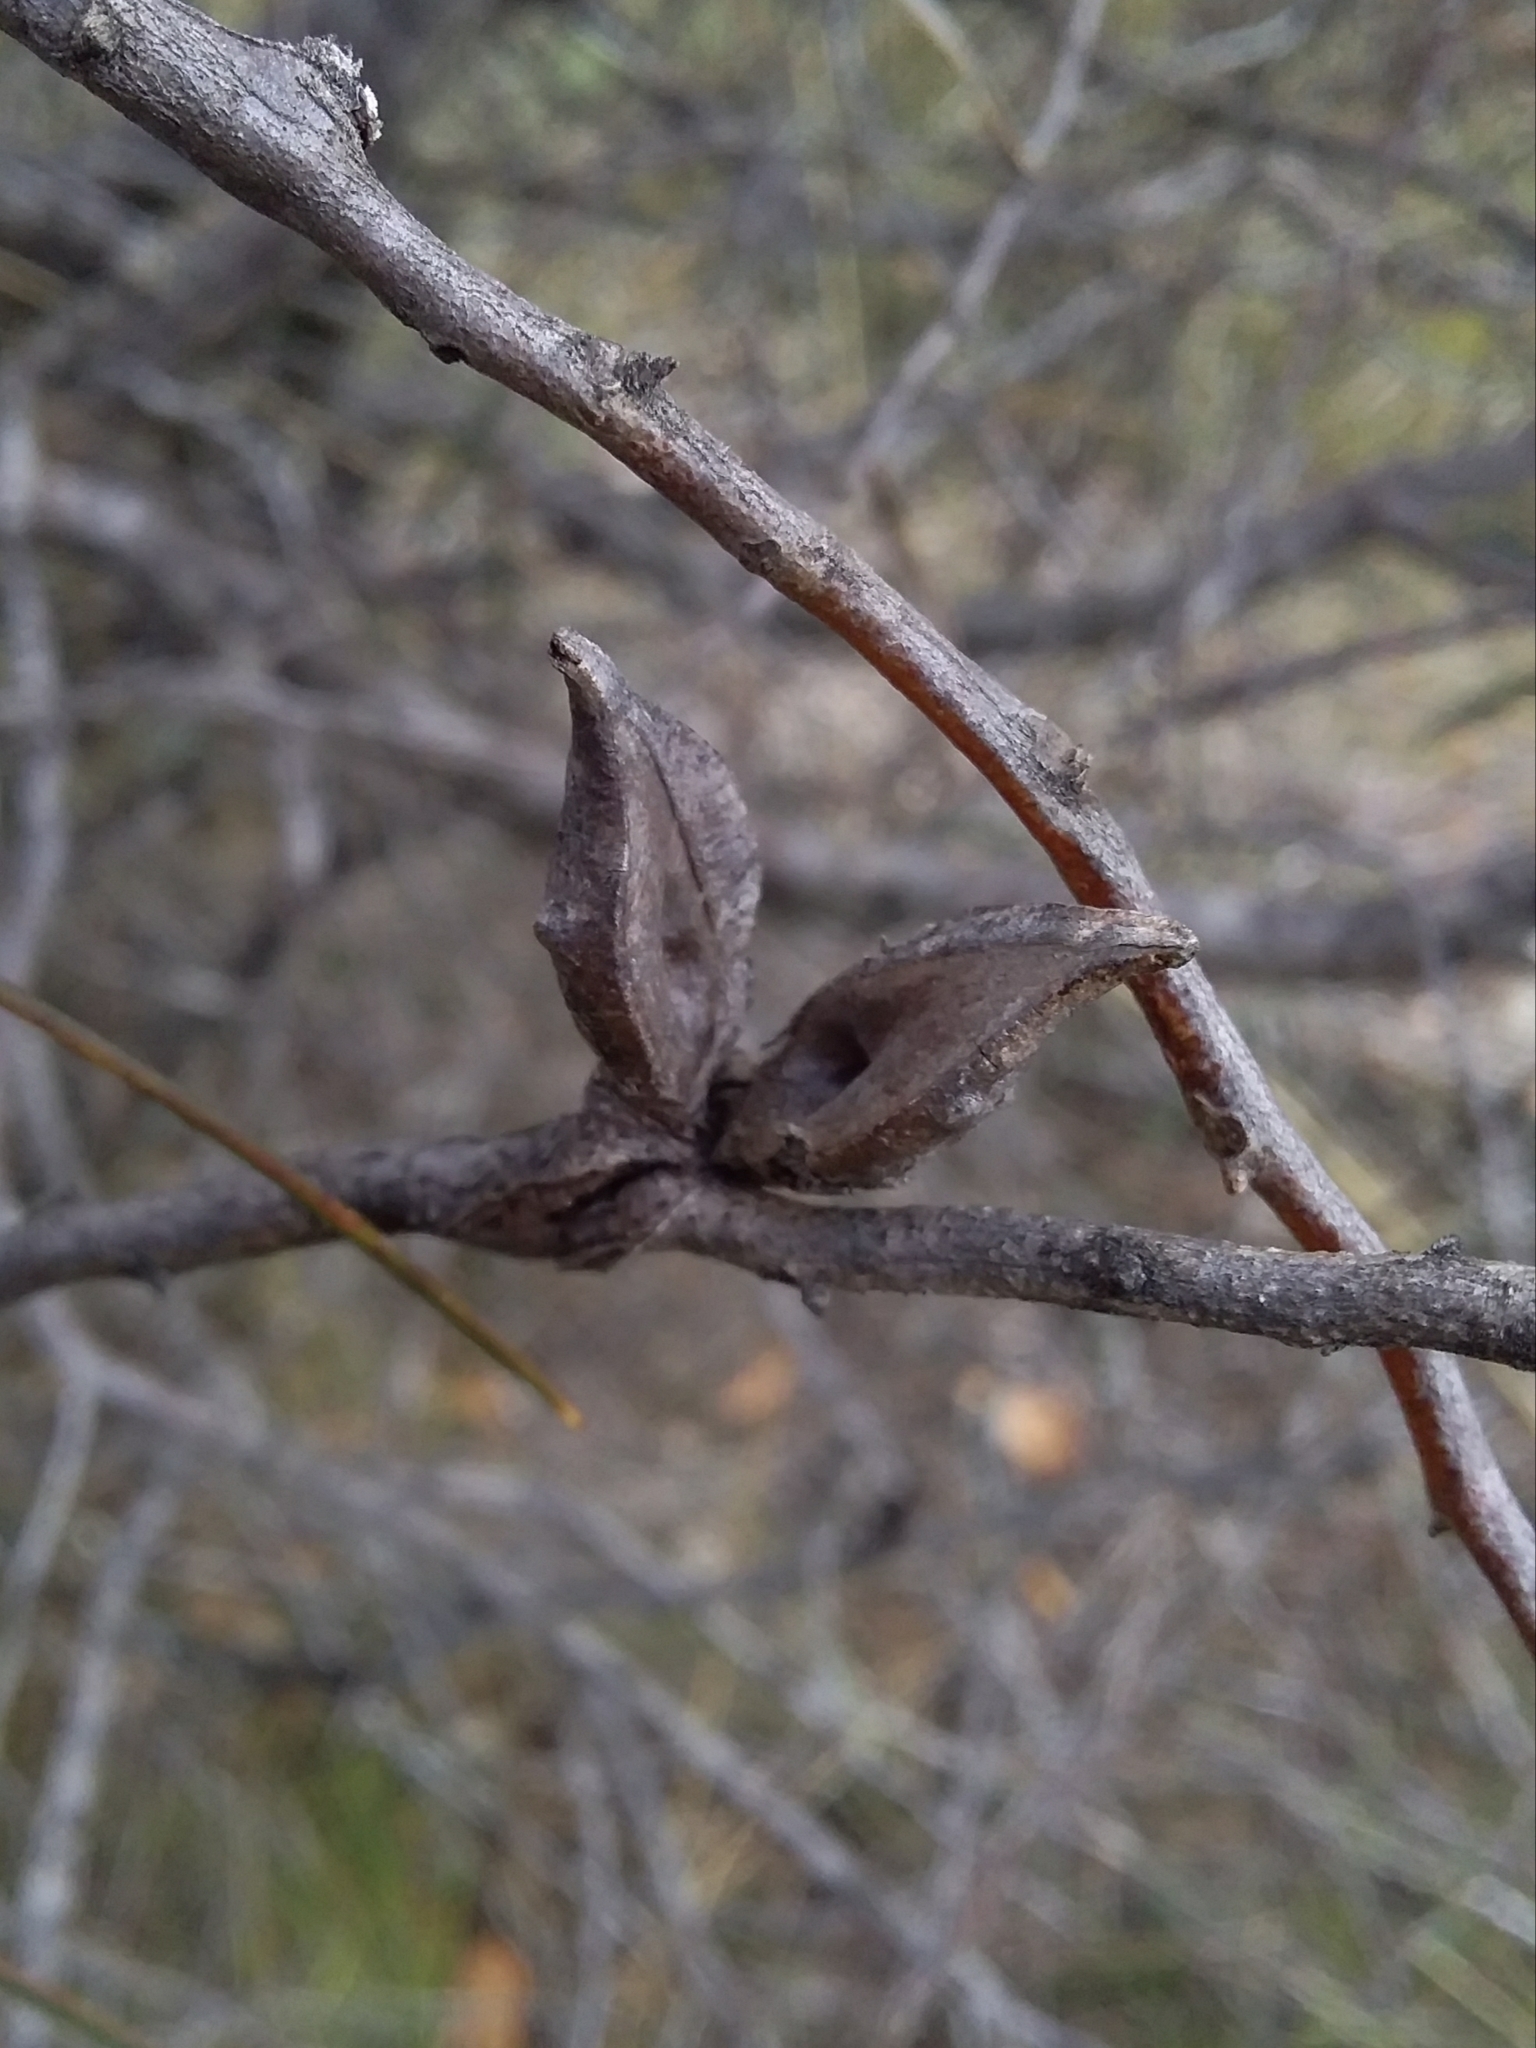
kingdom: Plantae
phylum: Tracheophyta
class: Magnoliopsida
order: Proteales
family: Proteaceae
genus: Hakea
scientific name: Hakea carinata
